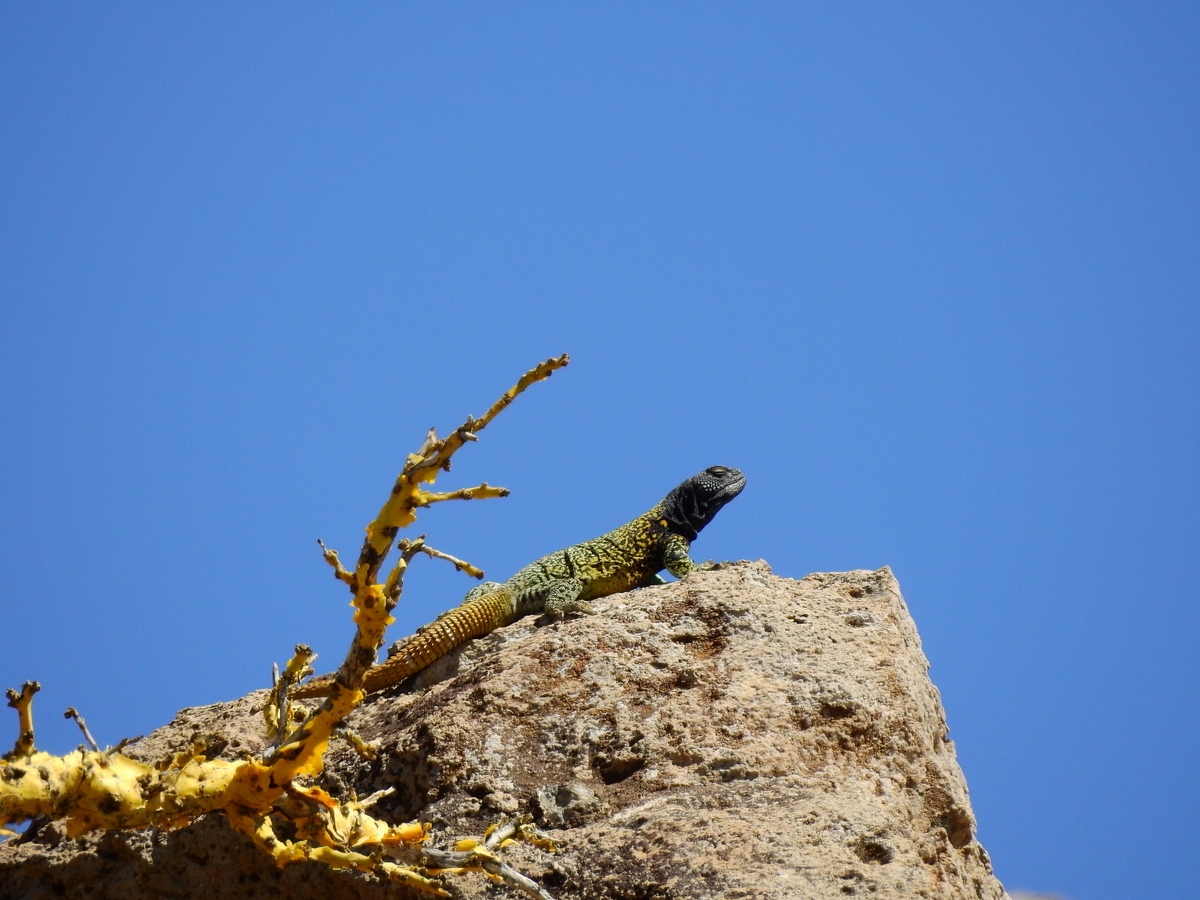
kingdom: Animalia
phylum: Chordata
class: Squamata
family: Liolaemidae
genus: Phymaturus
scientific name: Phymaturus verdugo
